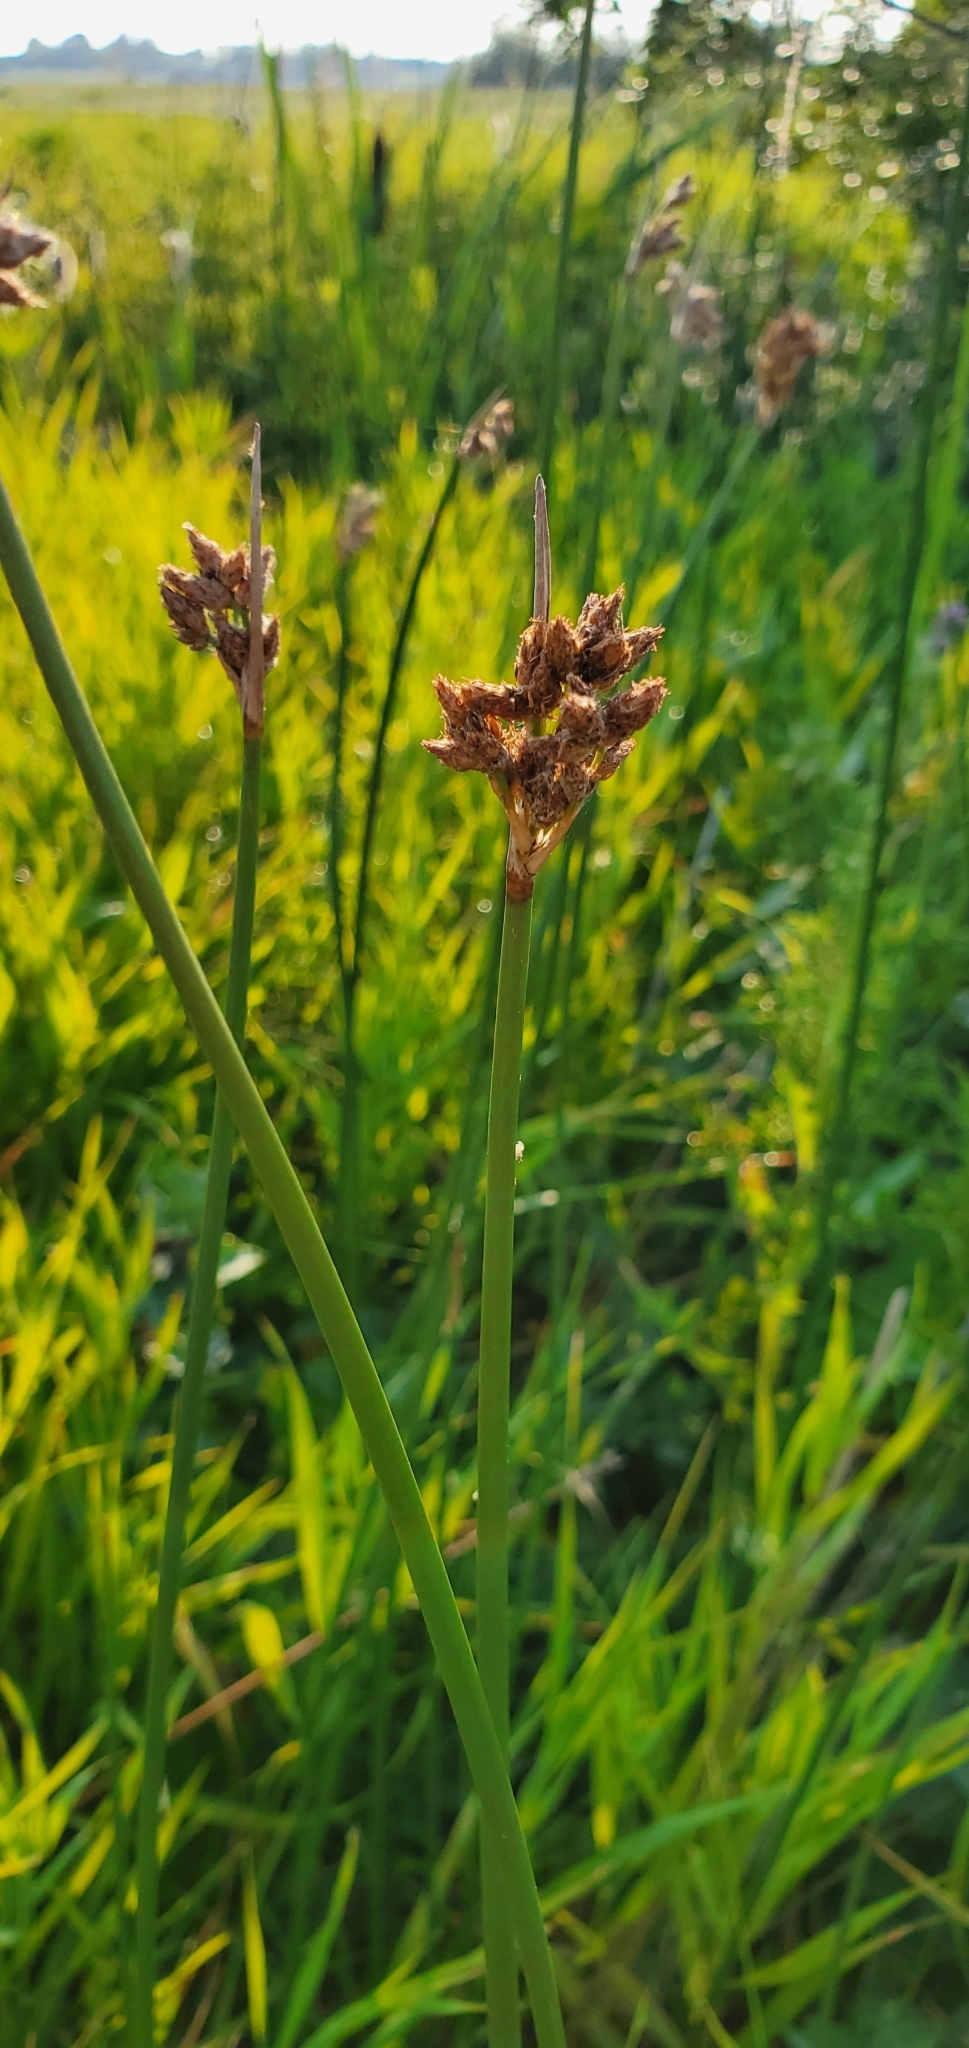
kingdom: Plantae
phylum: Tracheophyta
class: Liliopsida
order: Poales
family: Cyperaceae
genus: Schoenoplectus
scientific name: Schoenoplectus acutus
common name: Hardstem bulrush
